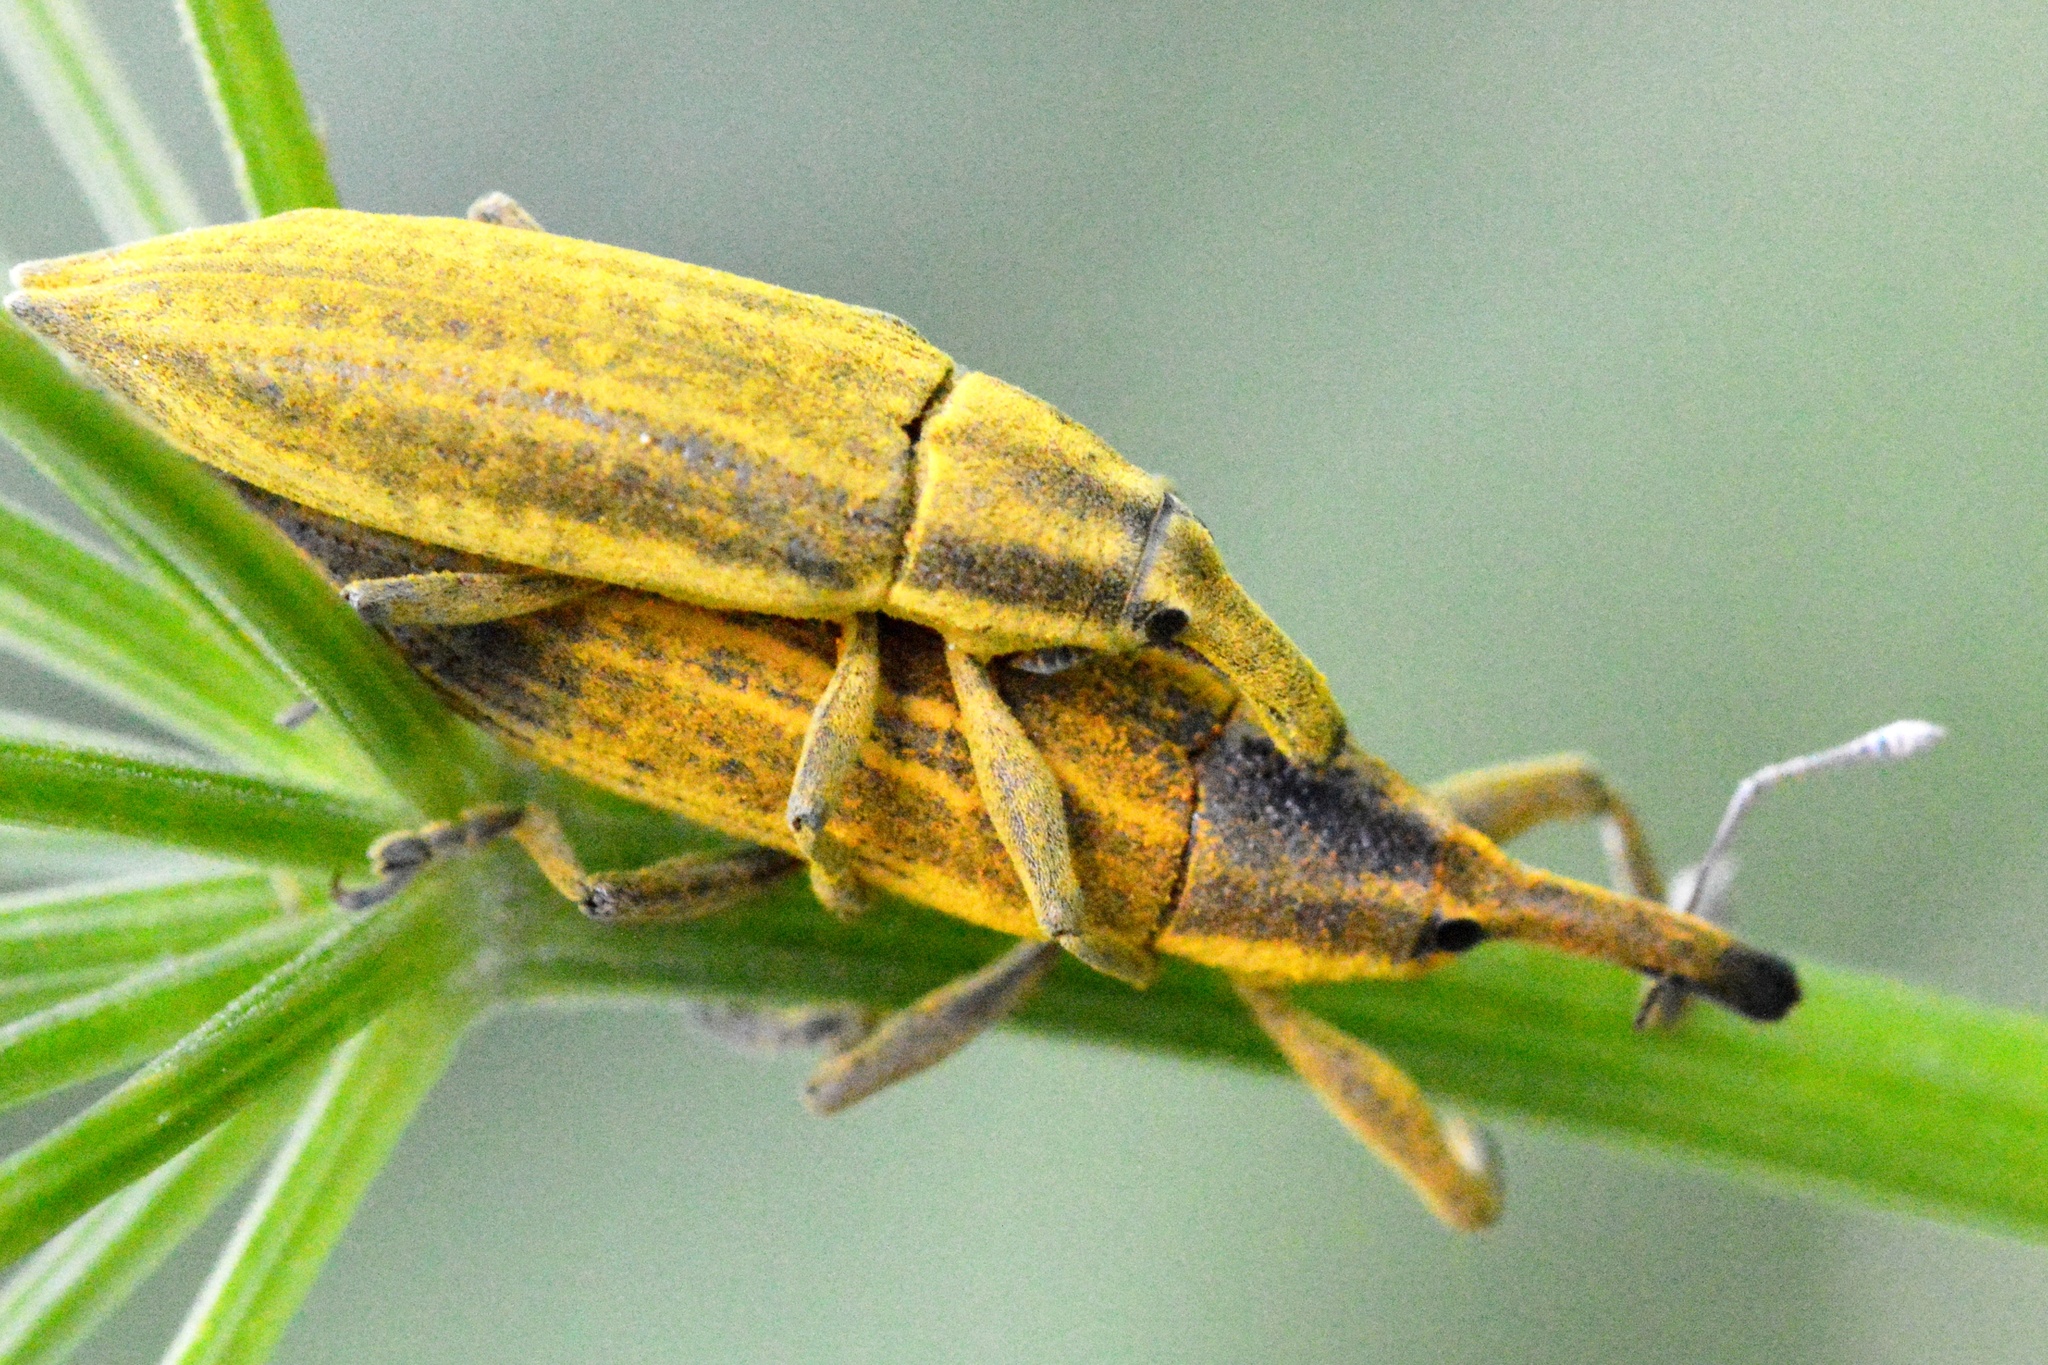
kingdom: Animalia
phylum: Arthropoda
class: Insecta
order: Coleoptera
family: Curculionidae
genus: Lixus
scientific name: Lixus iridis
